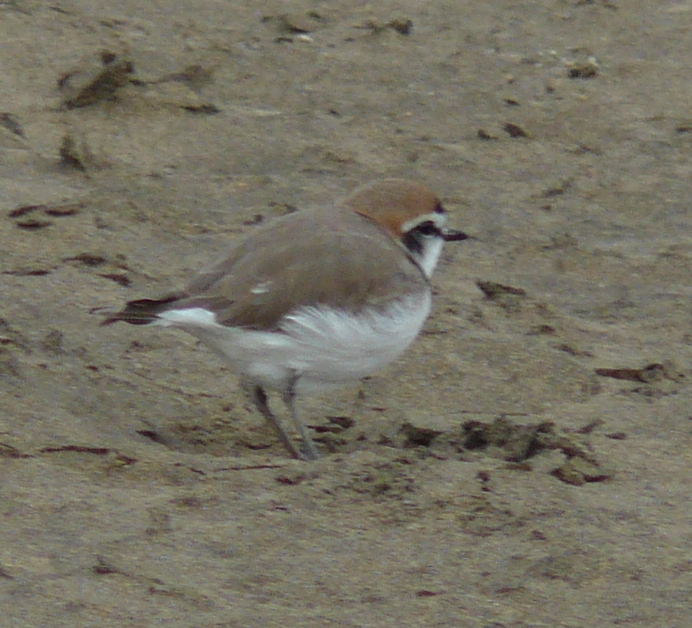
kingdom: Animalia
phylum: Chordata
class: Aves
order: Charadriiformes
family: Charadriidae
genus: Charadrius
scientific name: Charadrius alexandrinus
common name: Kentish plover
